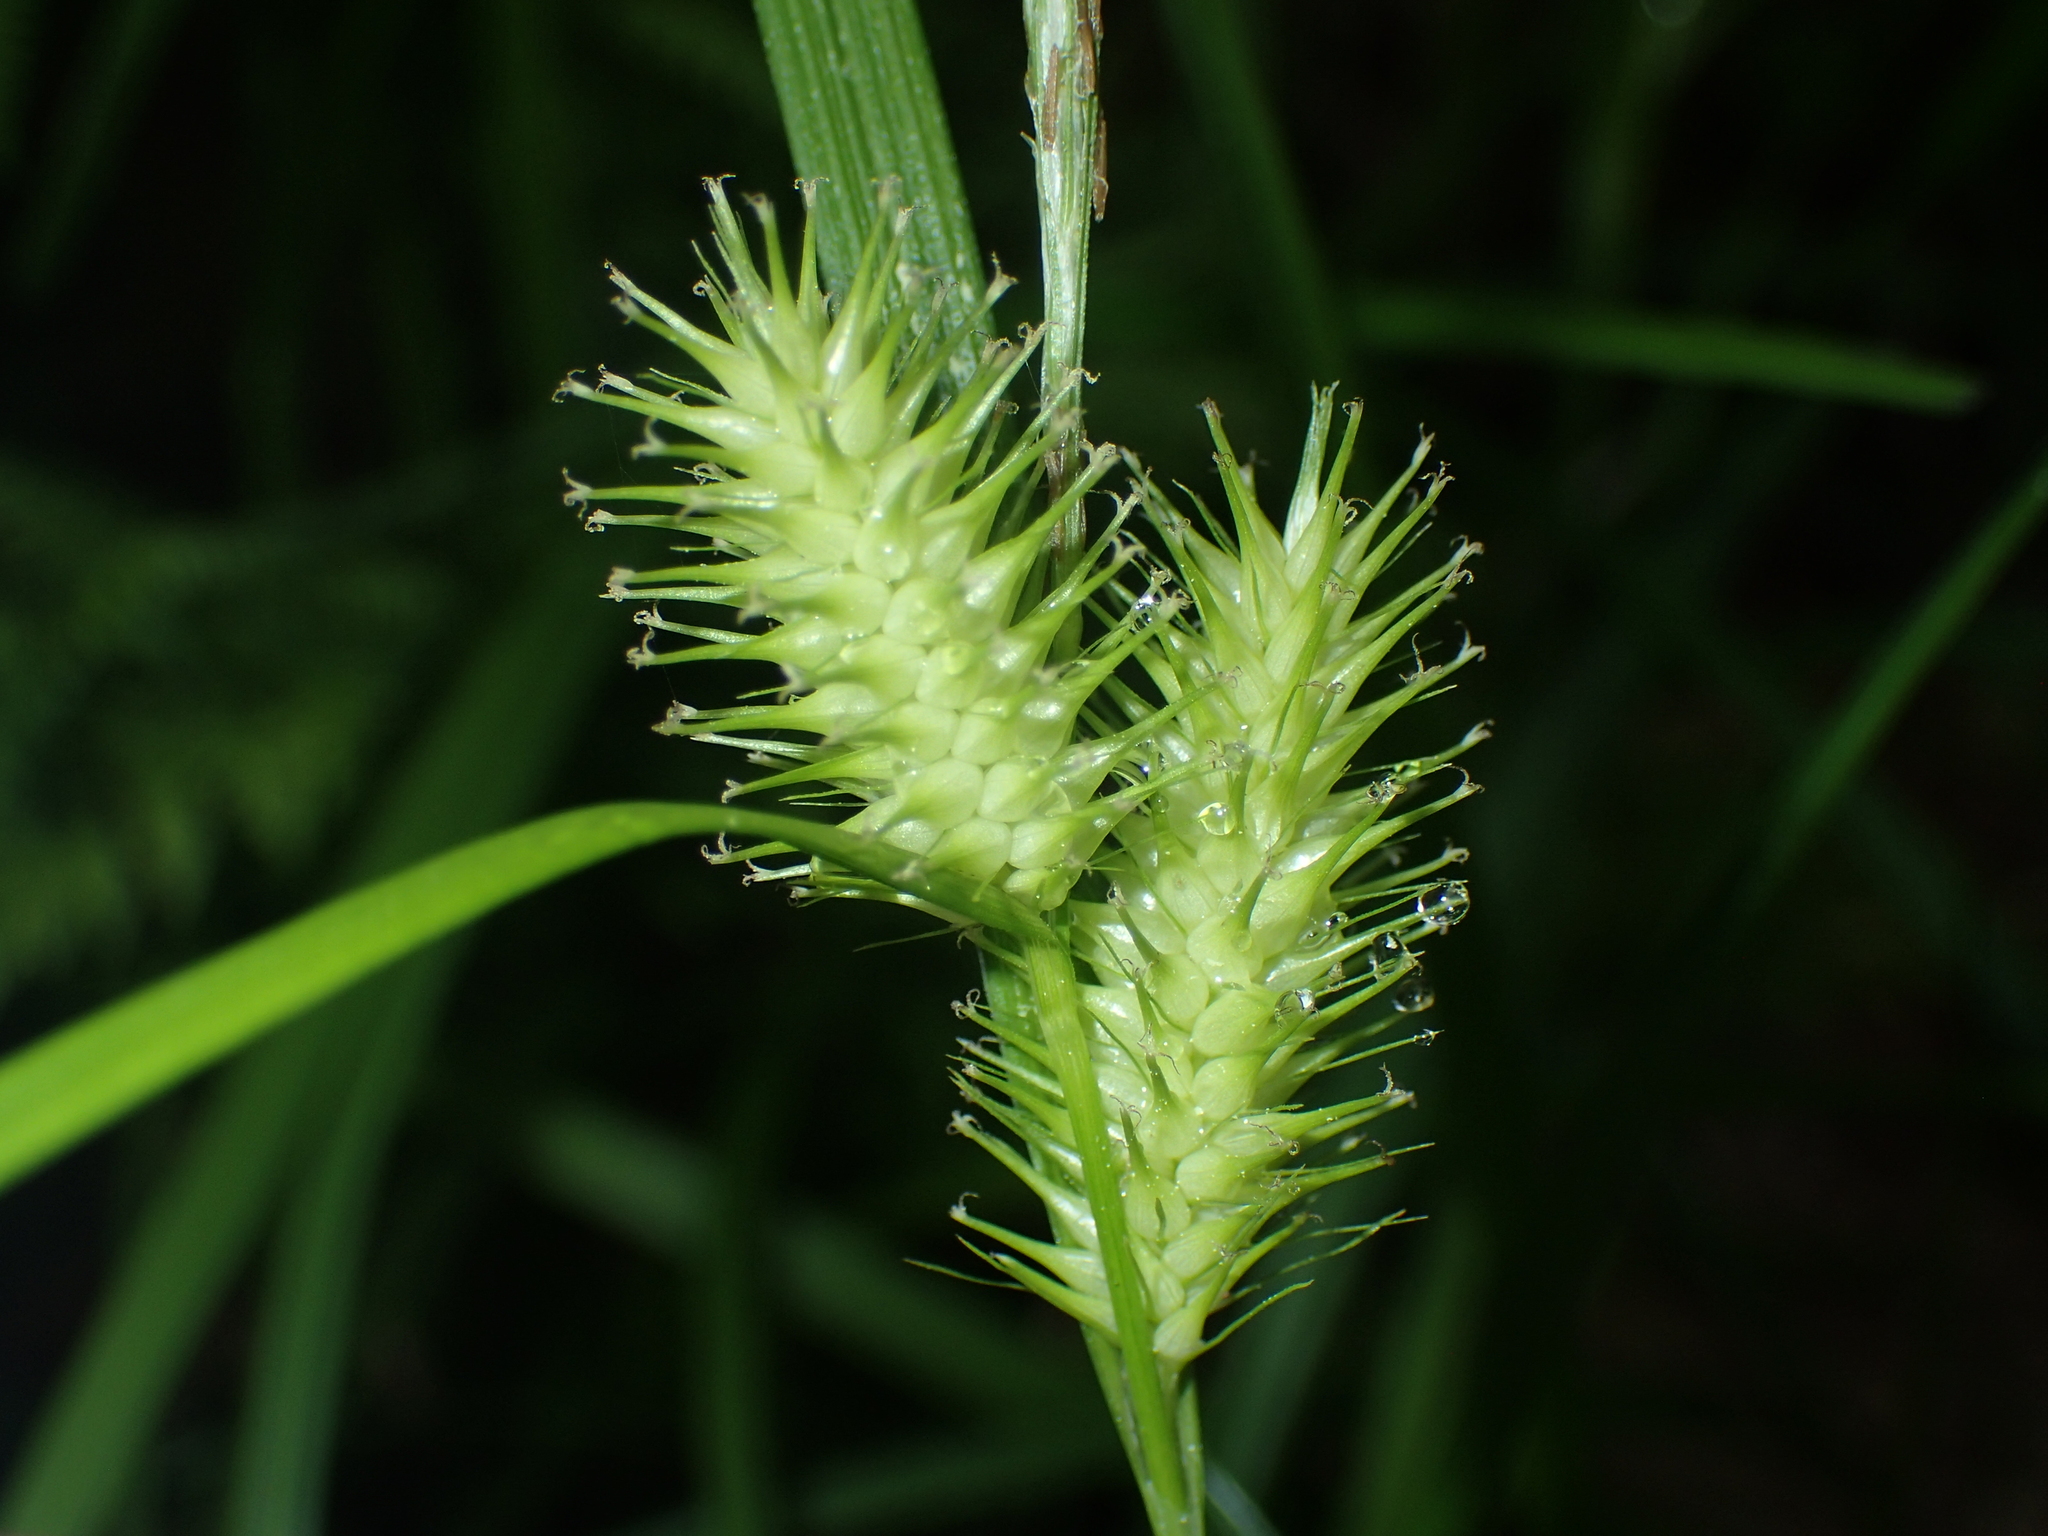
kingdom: Plantae
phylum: Tracheophyta
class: Liliopsida
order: Poales
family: Cyperaceae
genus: Carex
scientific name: Carex lurida
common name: Sallow sedge
